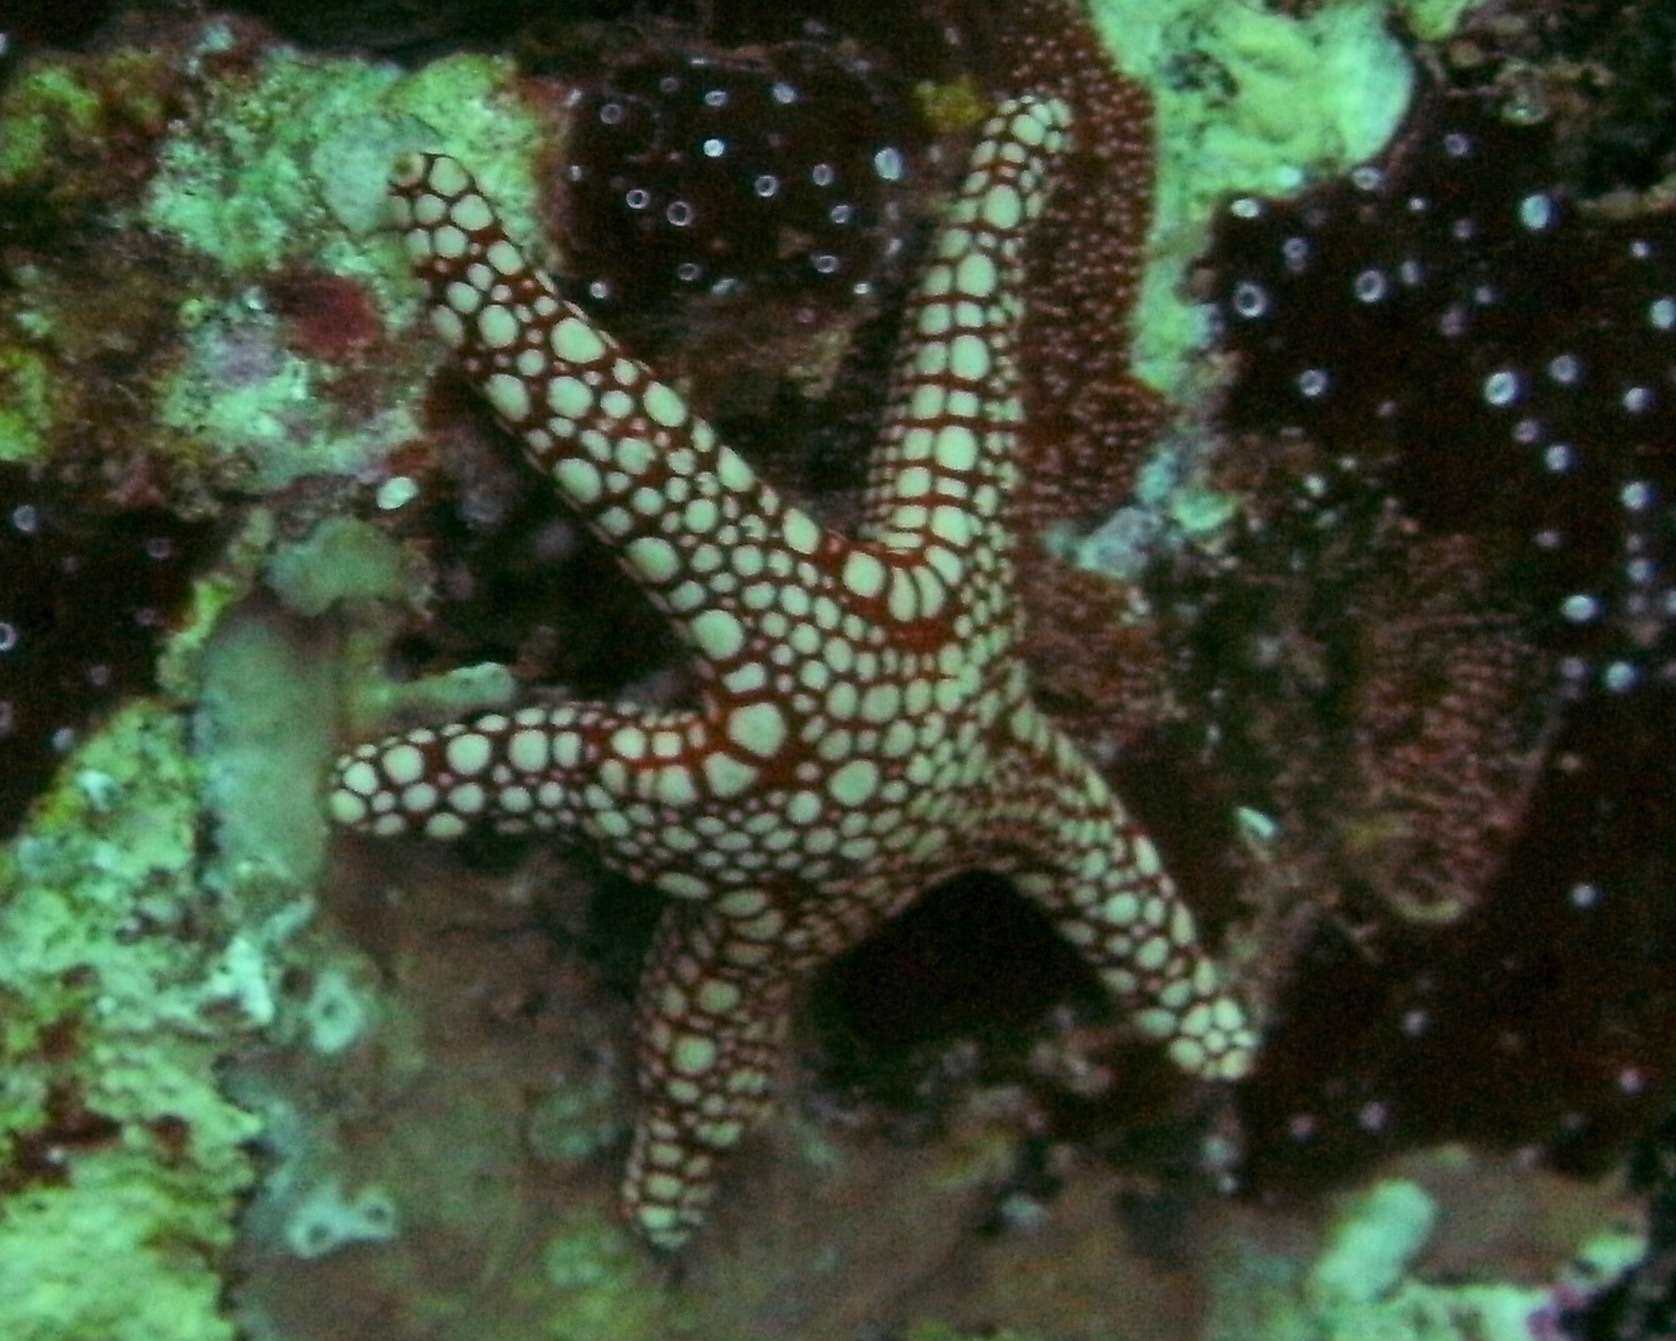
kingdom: Animalia
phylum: Echinodermata
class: Asteroidea
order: Valvatida
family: Goniasteridae
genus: Fromia
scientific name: Fromia ghardaqana
